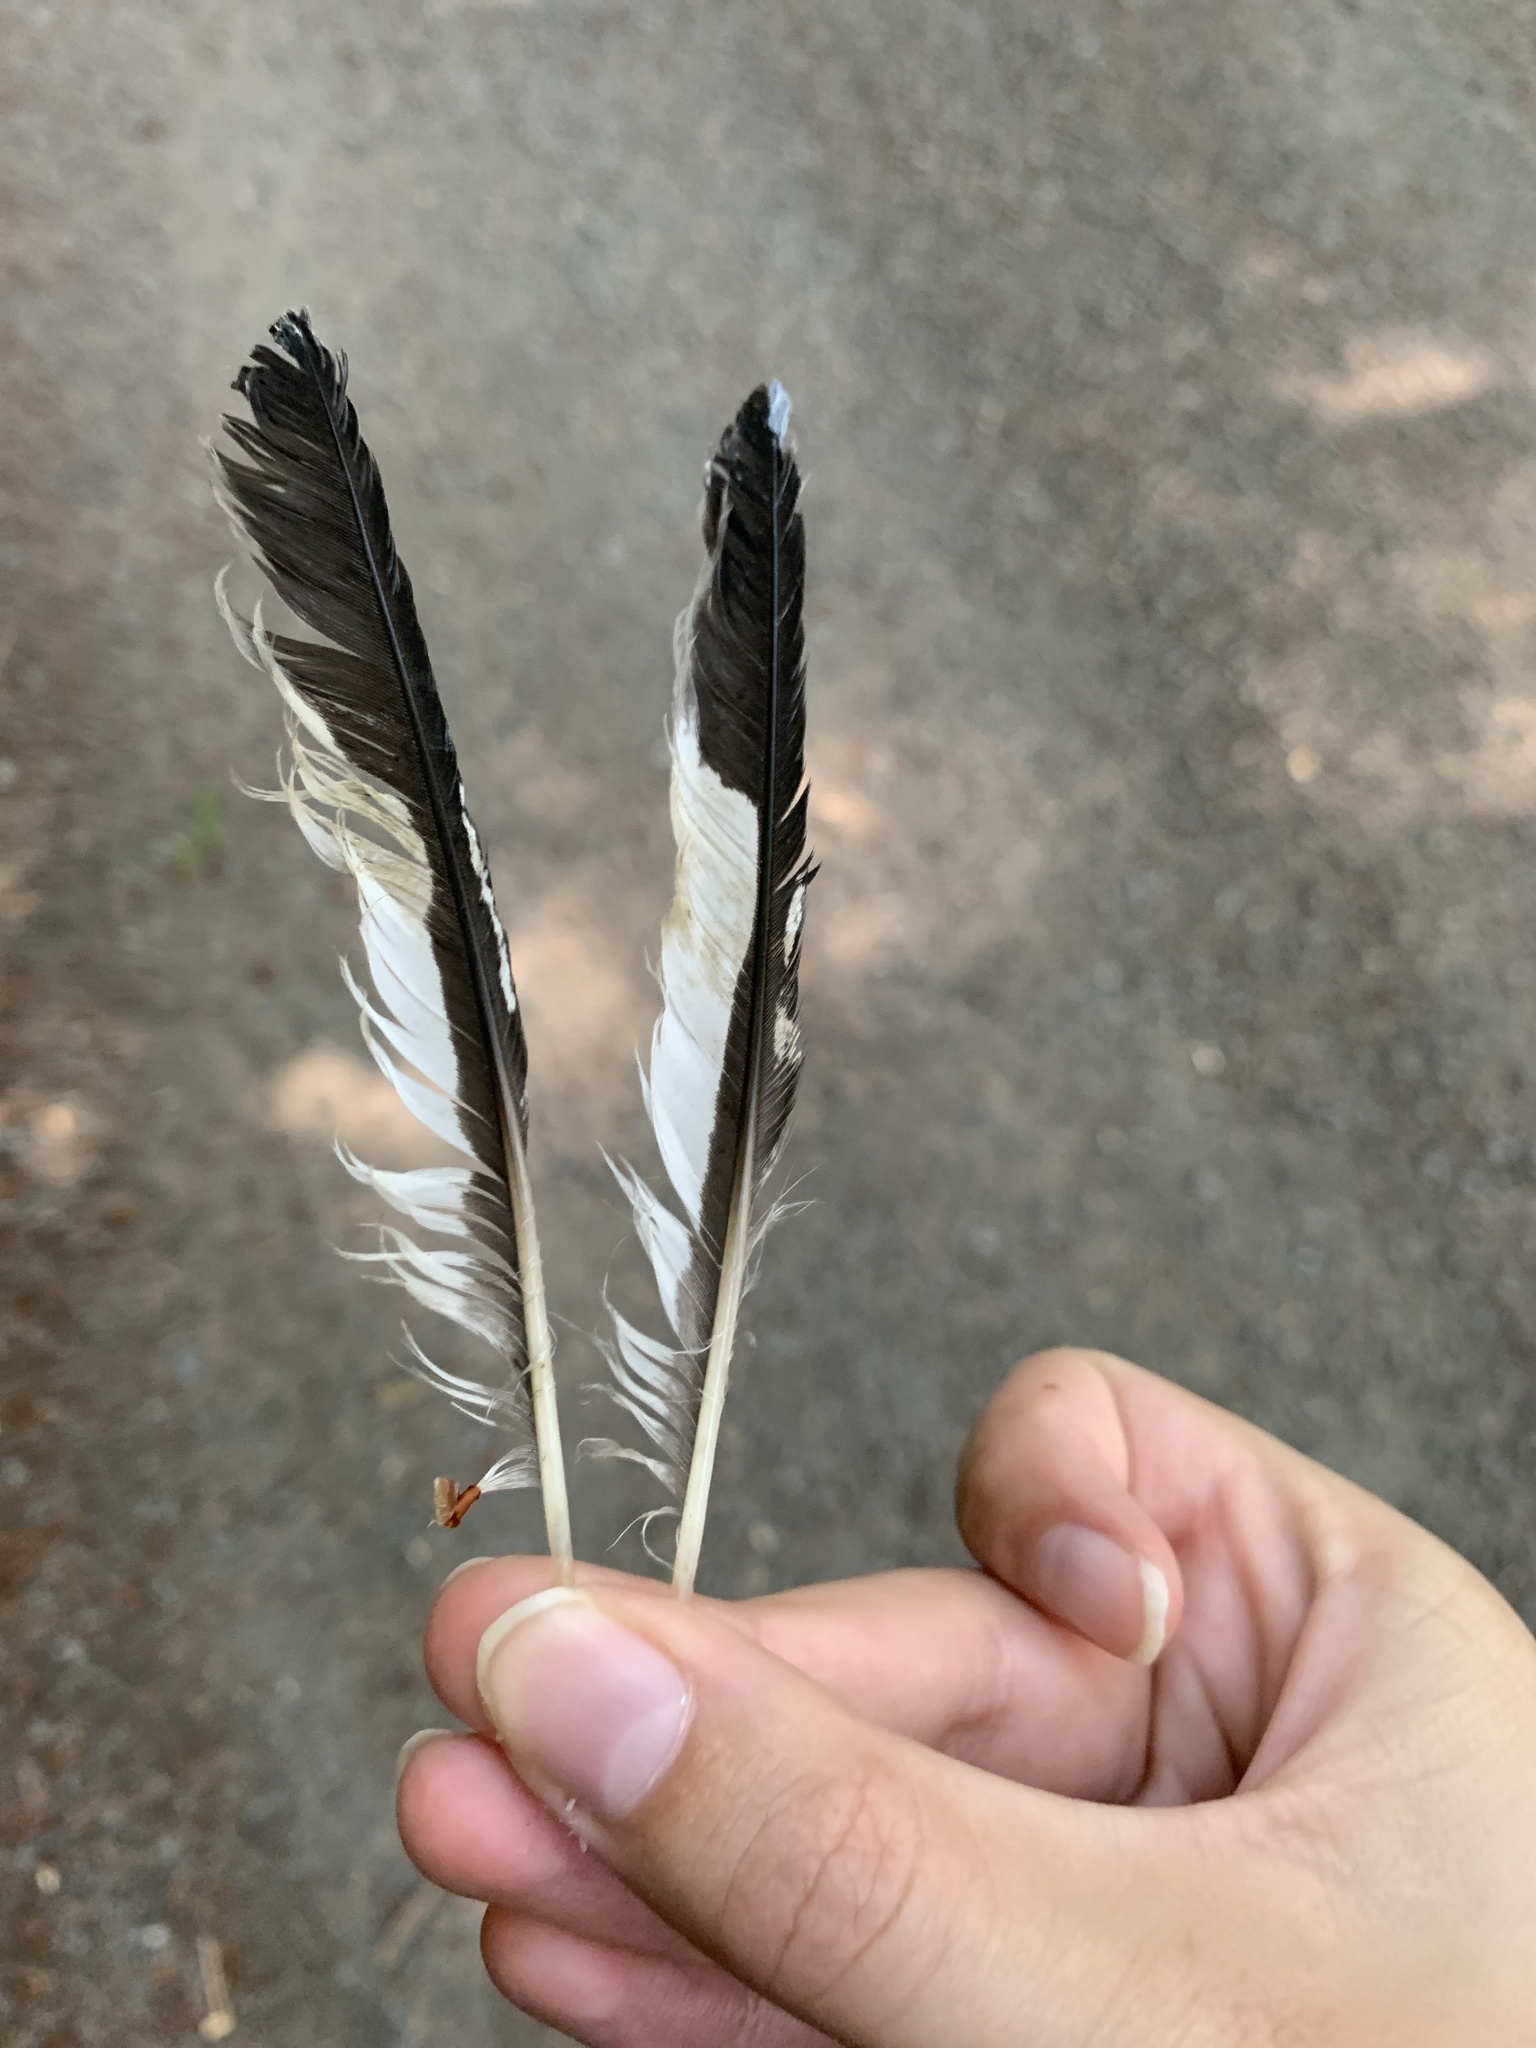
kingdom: Animalia
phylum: Chordata
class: Aves
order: Coraciiformes
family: Alcedinidae
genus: Megaceryle
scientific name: Megaceryle alcyon
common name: Belted kingfisher
